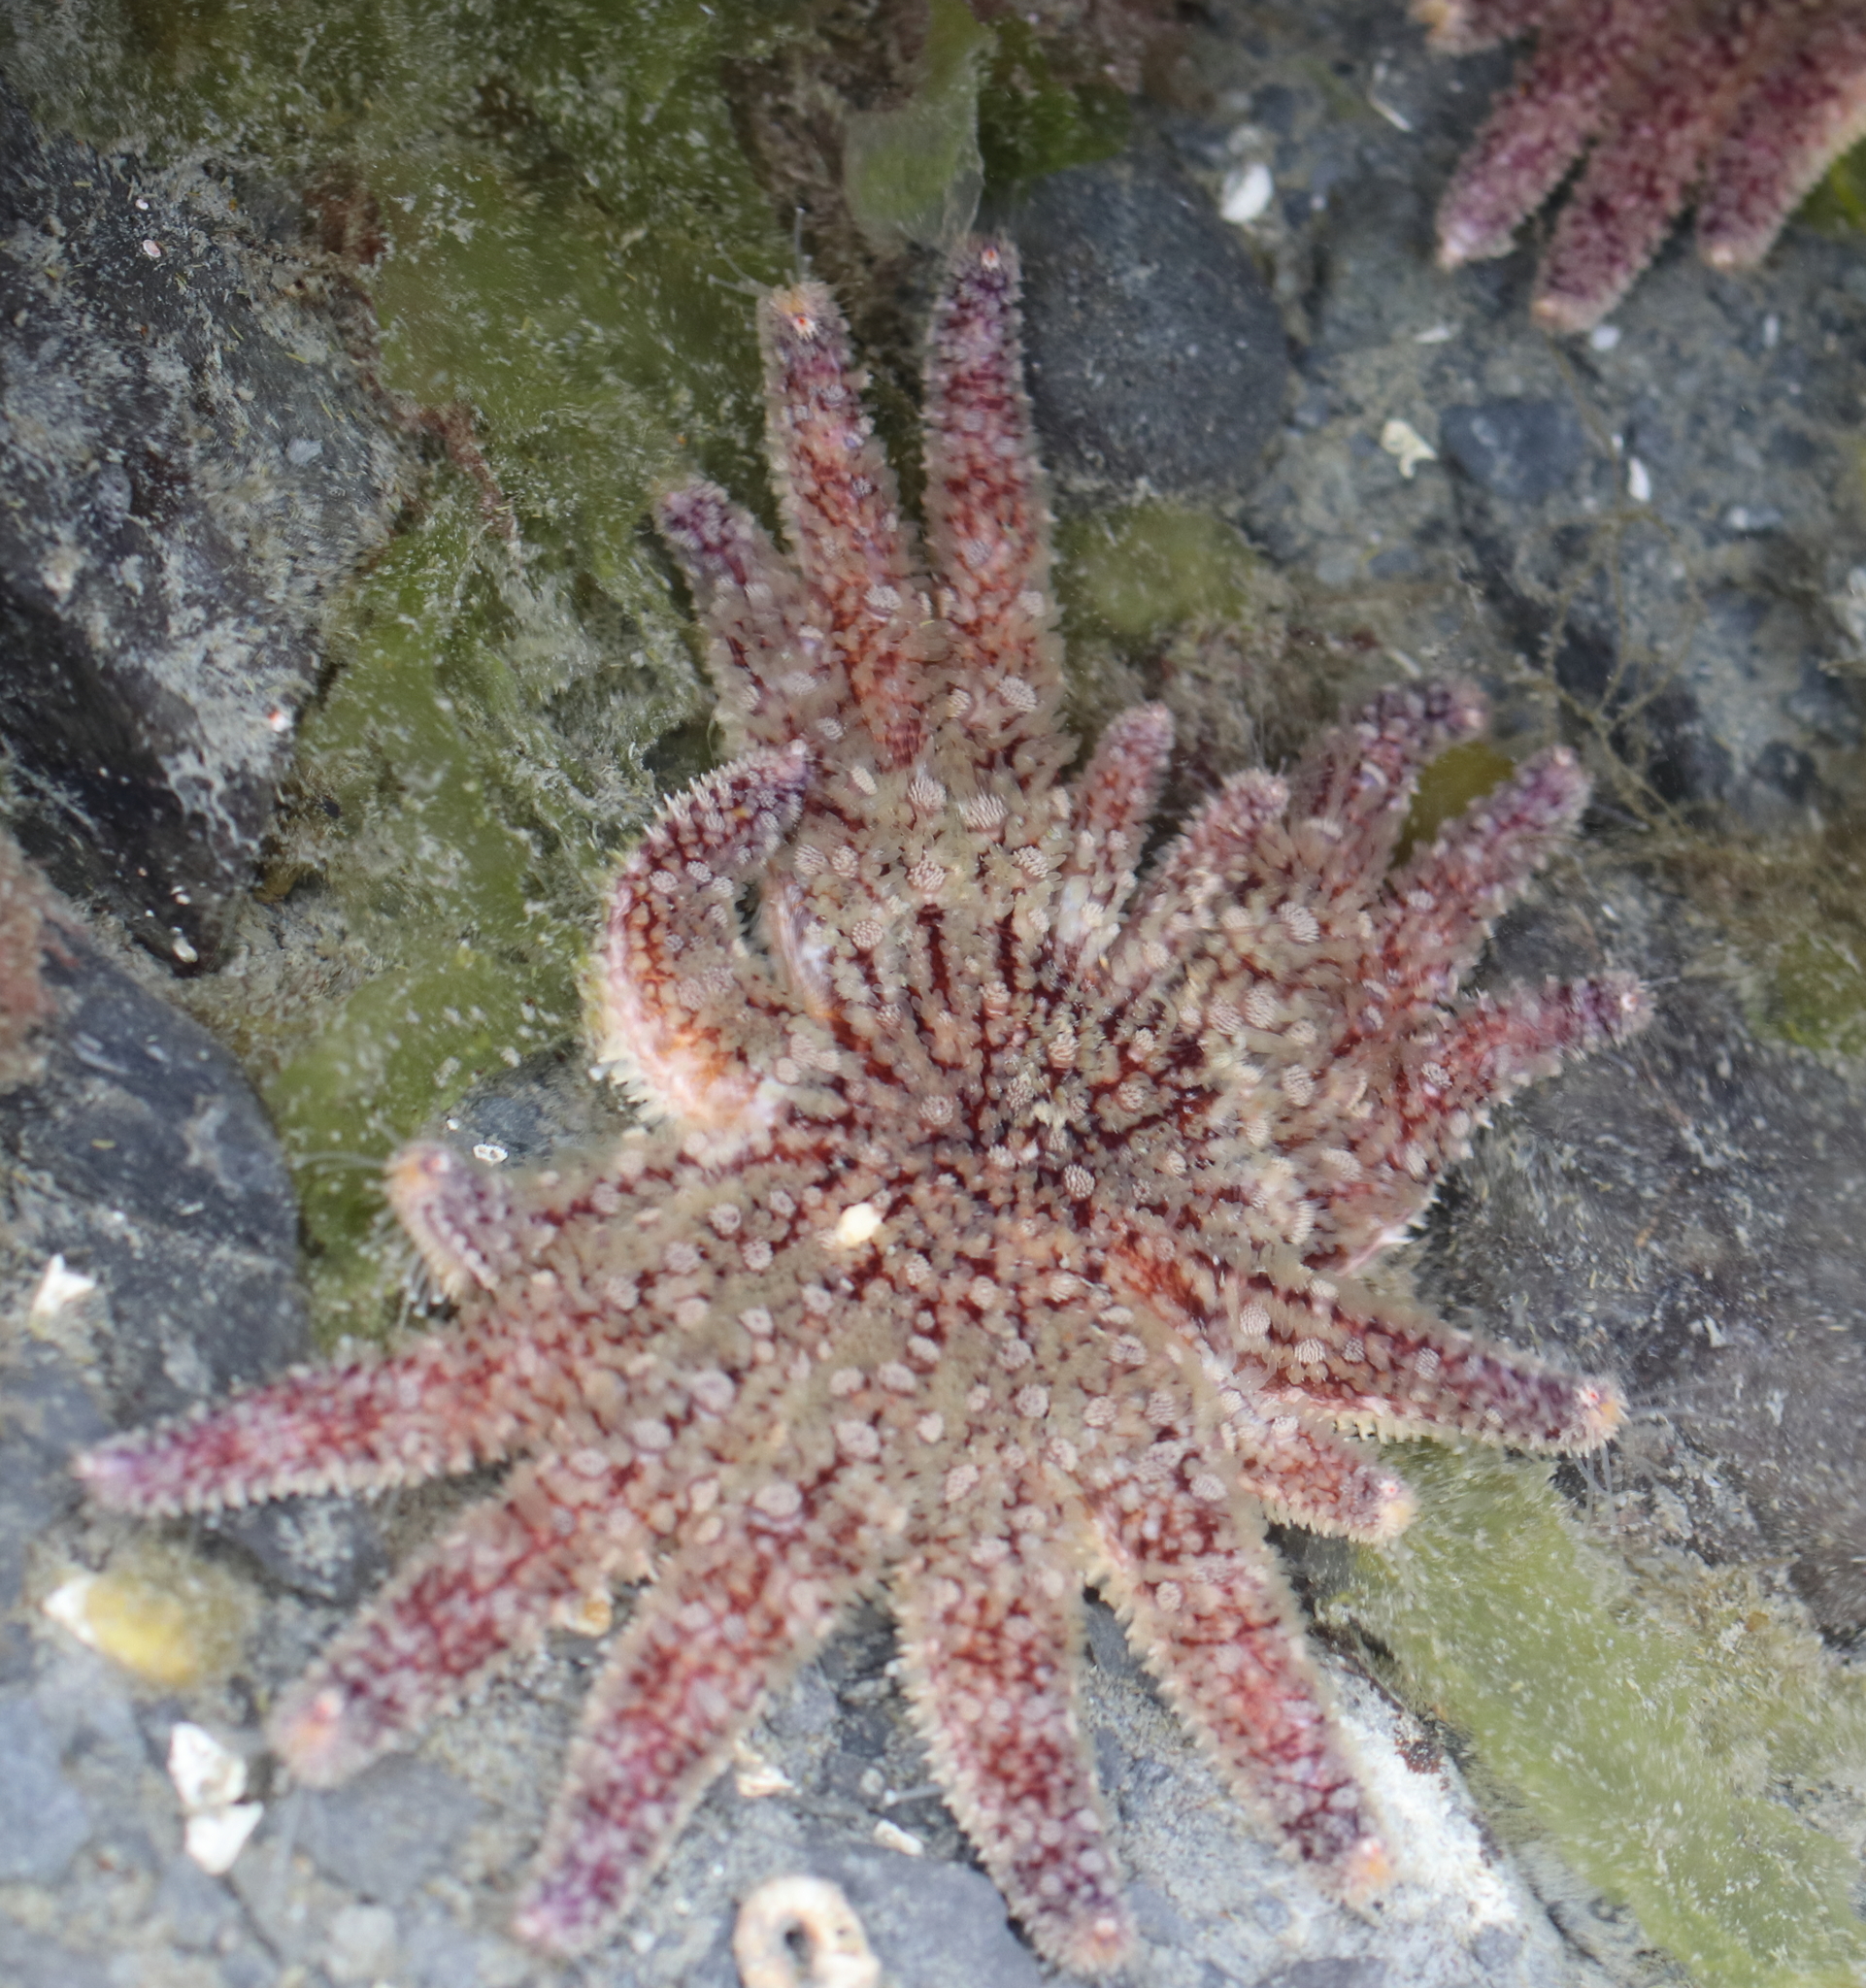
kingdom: Animalia
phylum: Echinodermata
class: Asteroidea
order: Forcipulatida
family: Asteriidae
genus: Pycnopodia
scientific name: Pycnopodia helianthoides
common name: Rag mop
